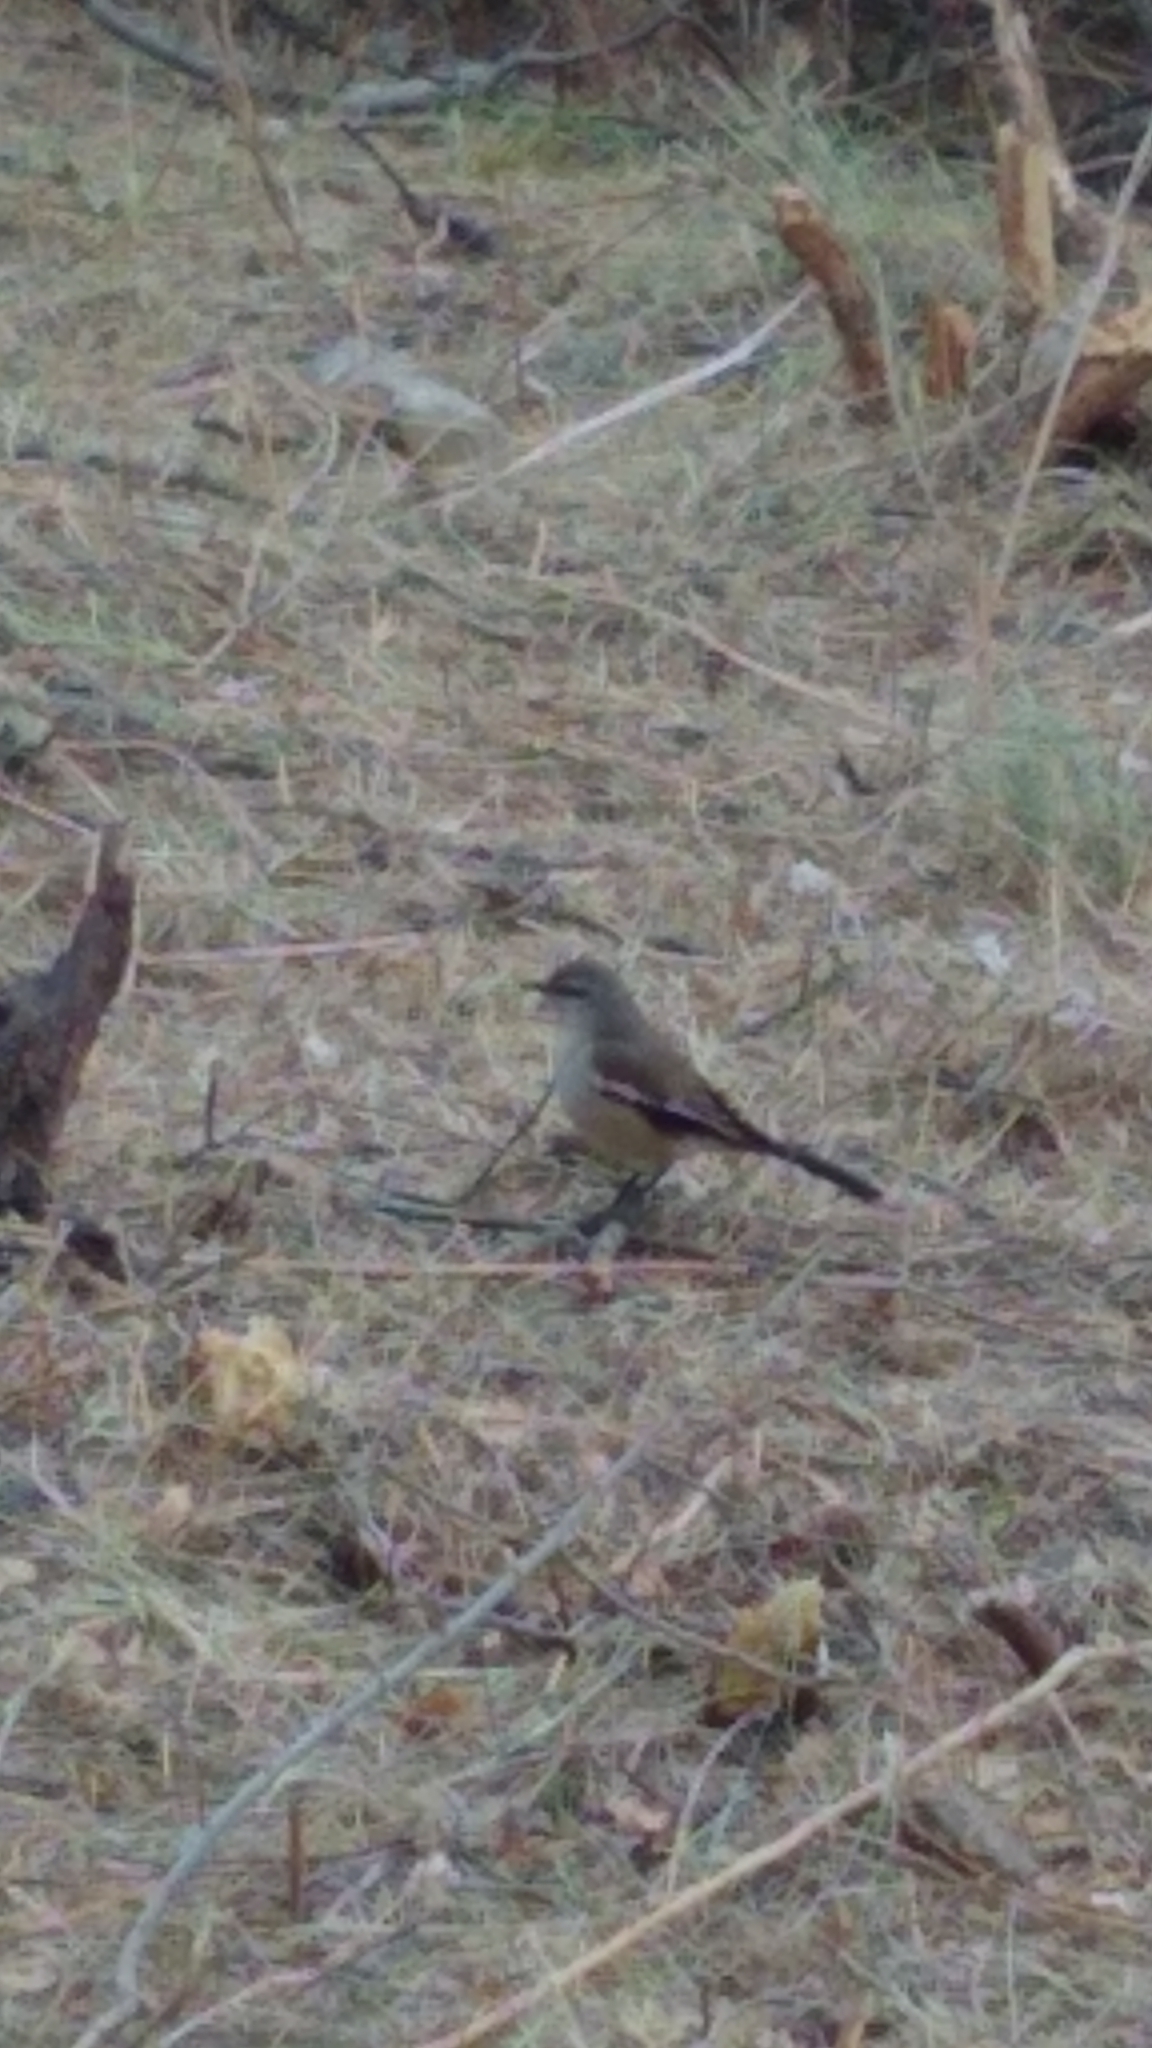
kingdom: Animalia
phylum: Chordata
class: Aves
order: Passeriformes
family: Mimidae
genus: Mimus
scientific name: Mimus triurus
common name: White-banded mockingbird
